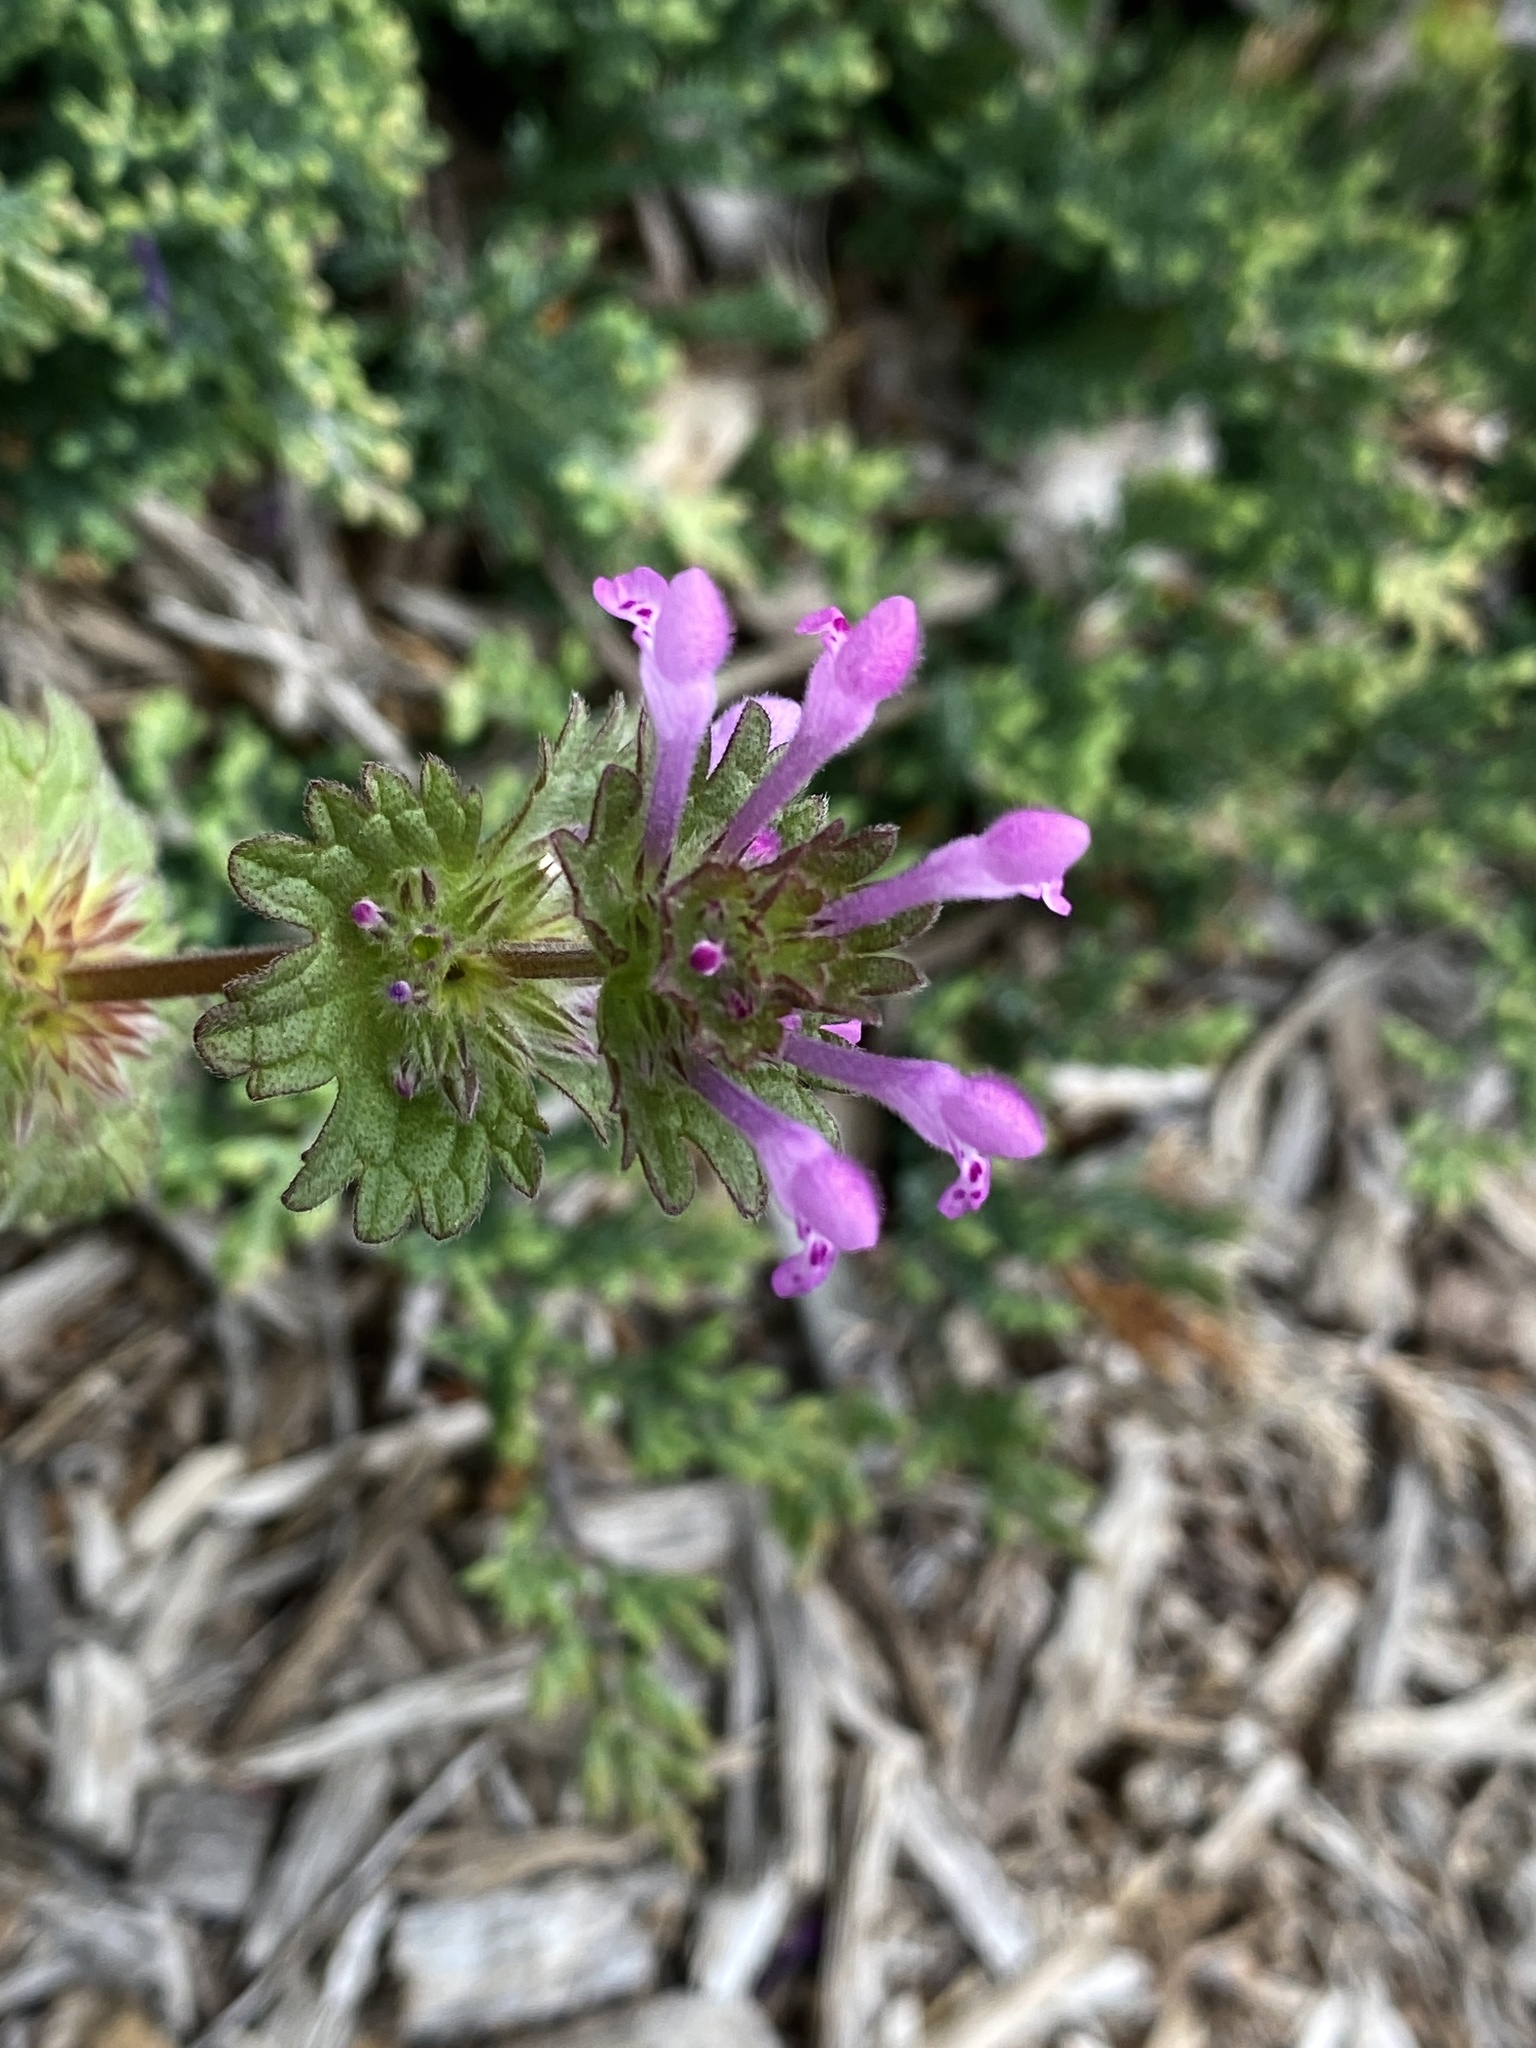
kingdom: Plantae
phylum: Tracheophyta
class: Magnoliopsida
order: Lamiales
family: Lamiaceae
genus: Lamium
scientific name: Lamium amplexicaule
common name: Henbit dead-nettle
